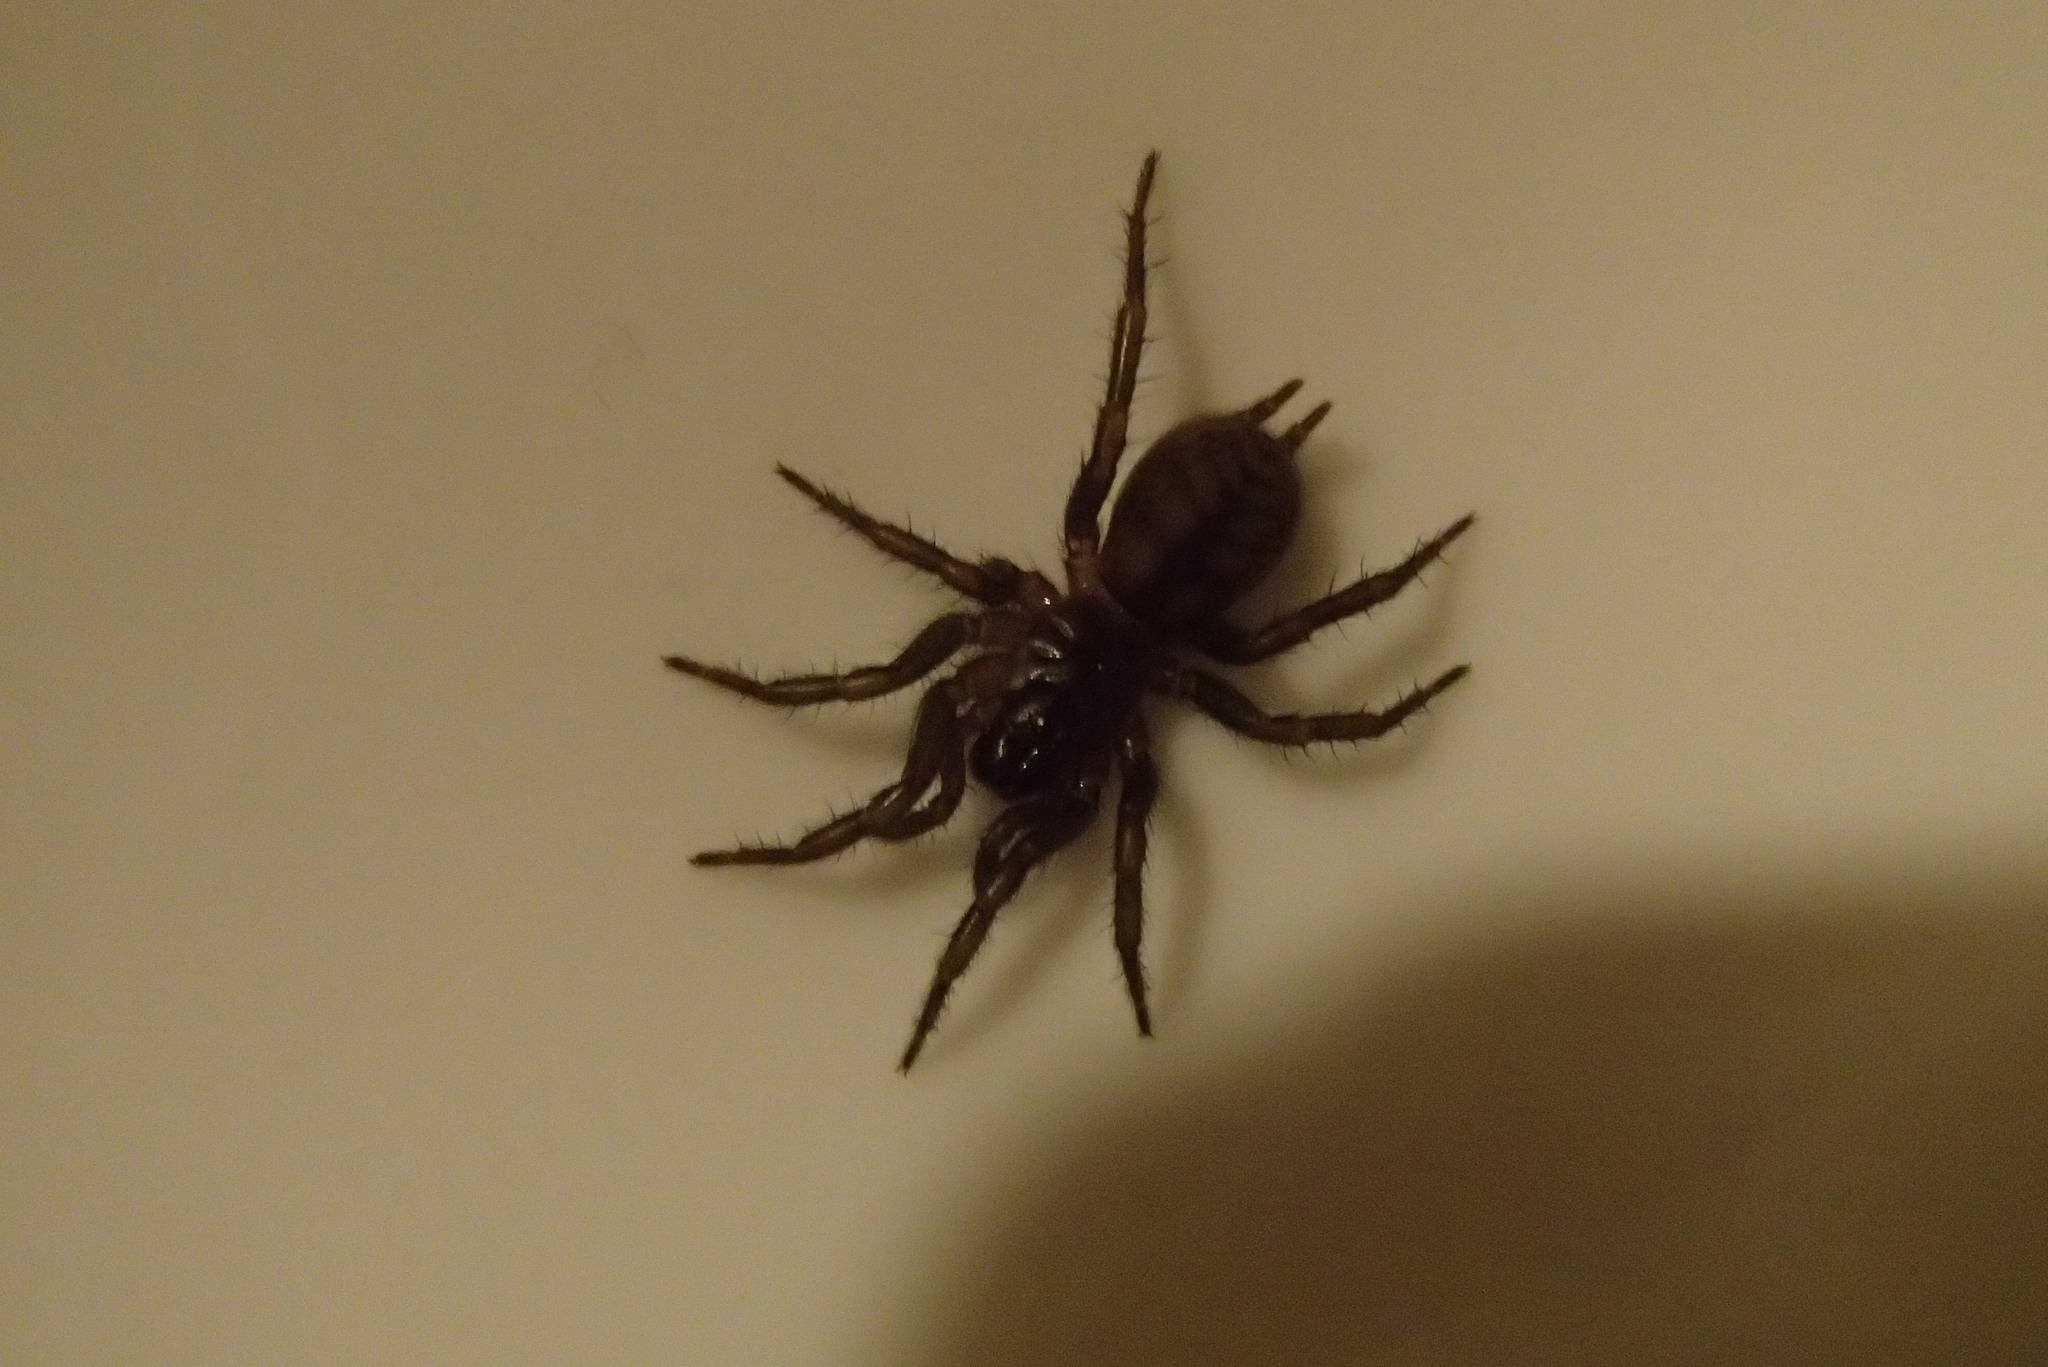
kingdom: Animalia
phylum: Arthropoda
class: Arachnida
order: Araneae
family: Hexathelidae
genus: Paraembolides
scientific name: Paraembolides variabilis
